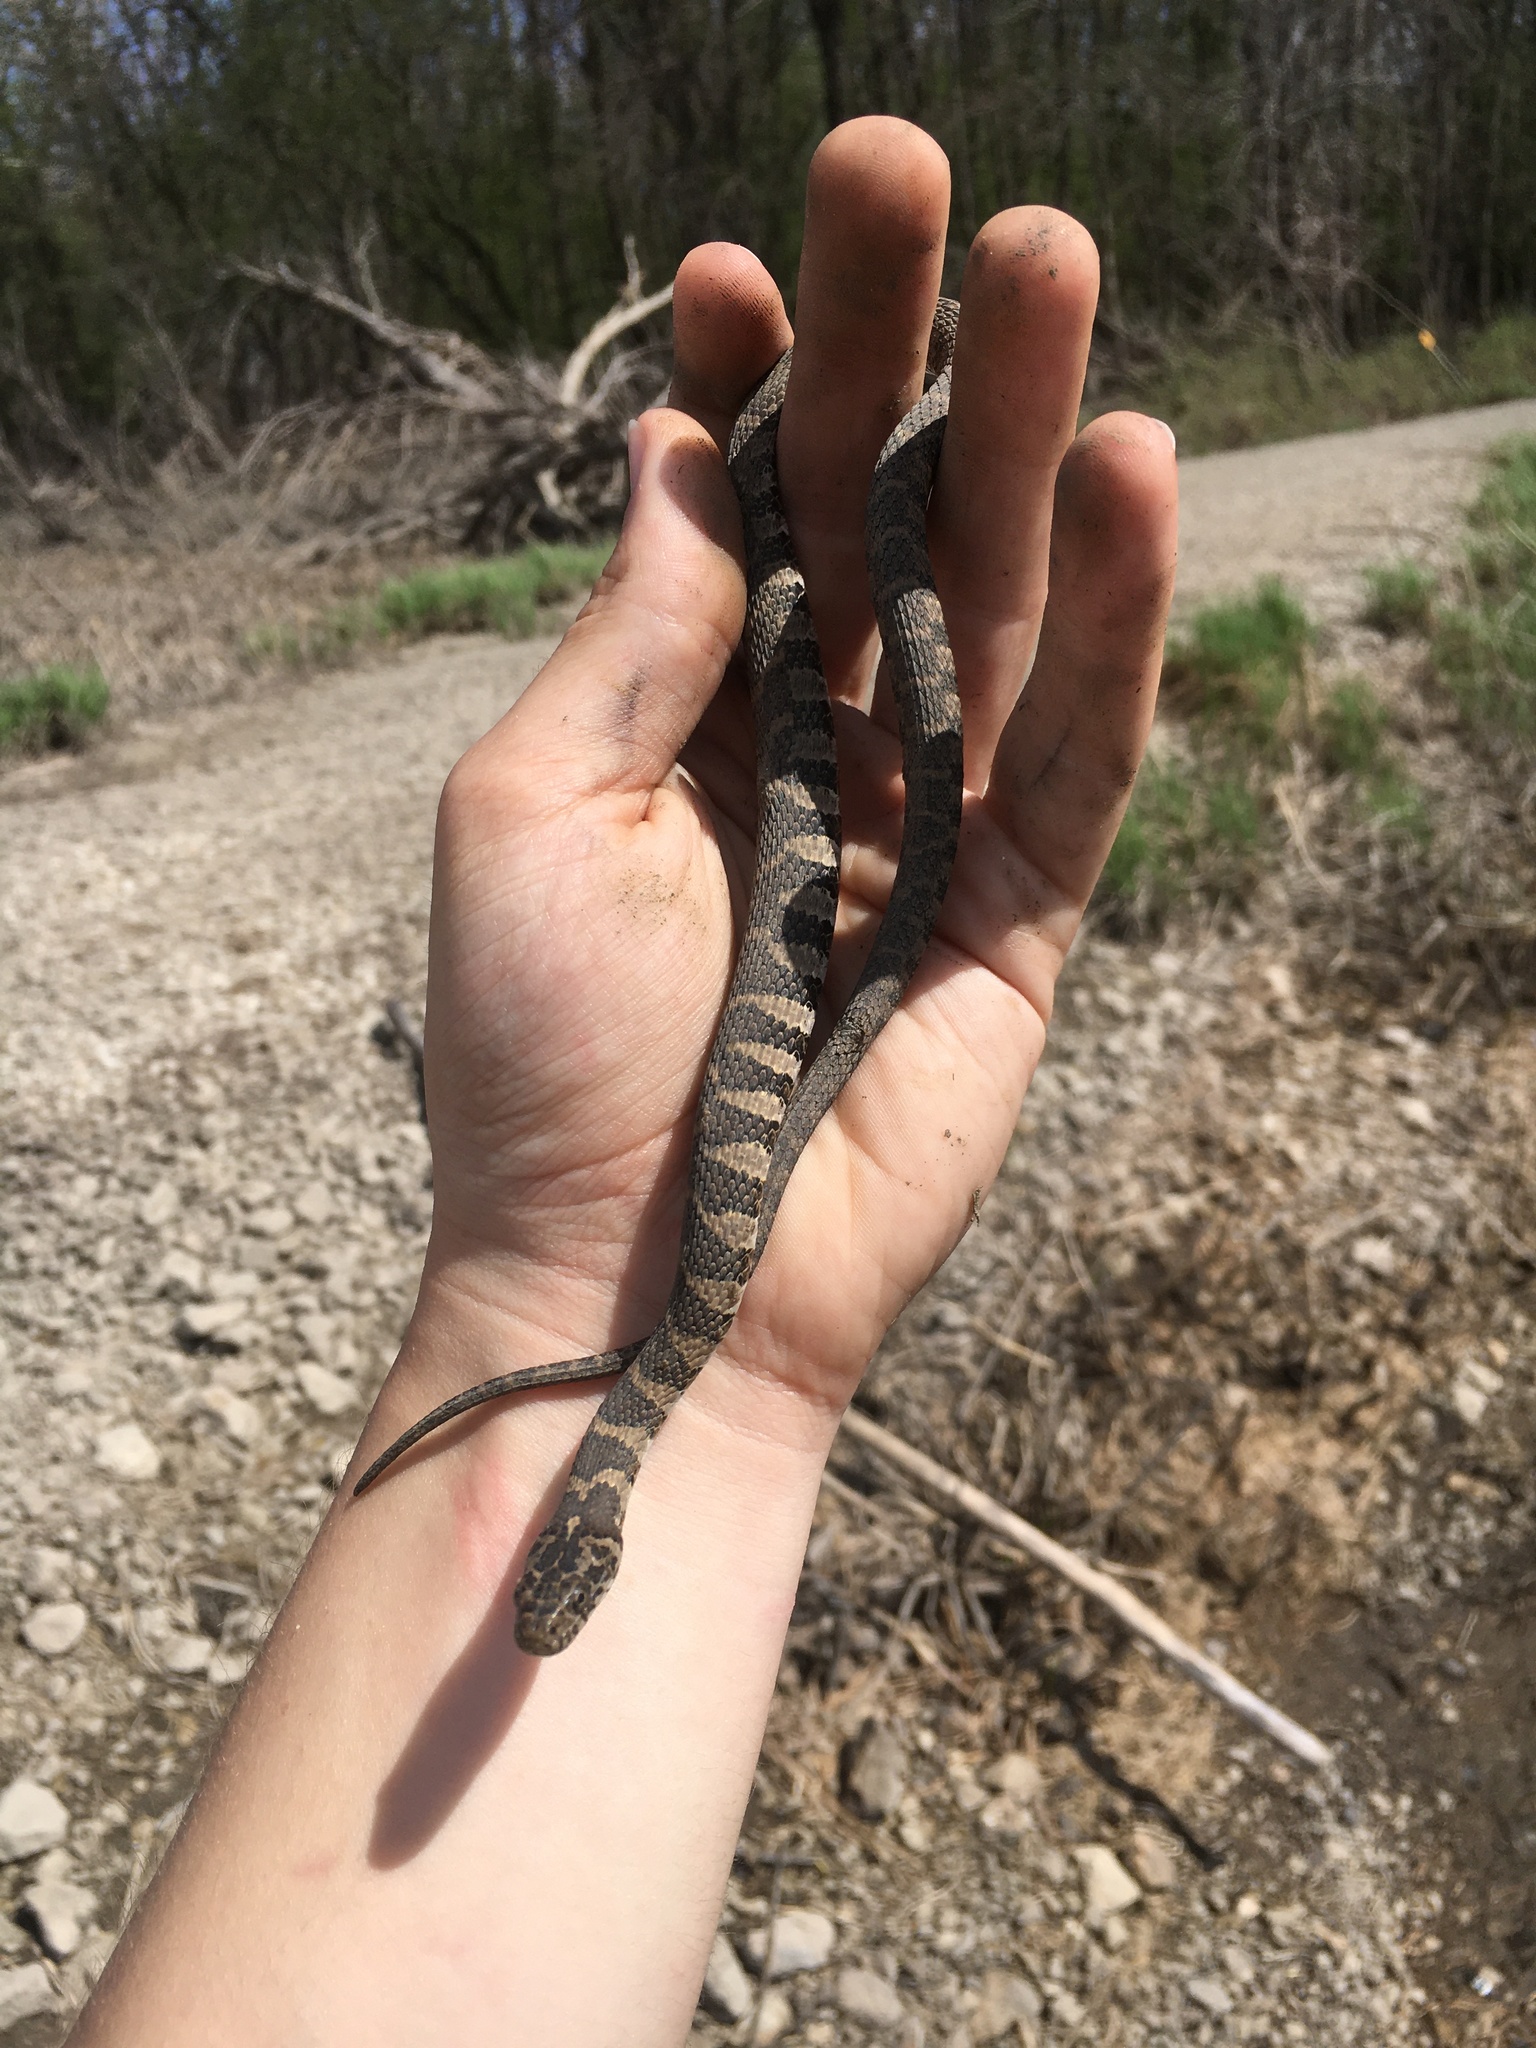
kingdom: Animalia
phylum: Chordata
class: Squamata
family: Colubridae
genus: Nerodia
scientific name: Nerodia sipedon
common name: Northern water snake
